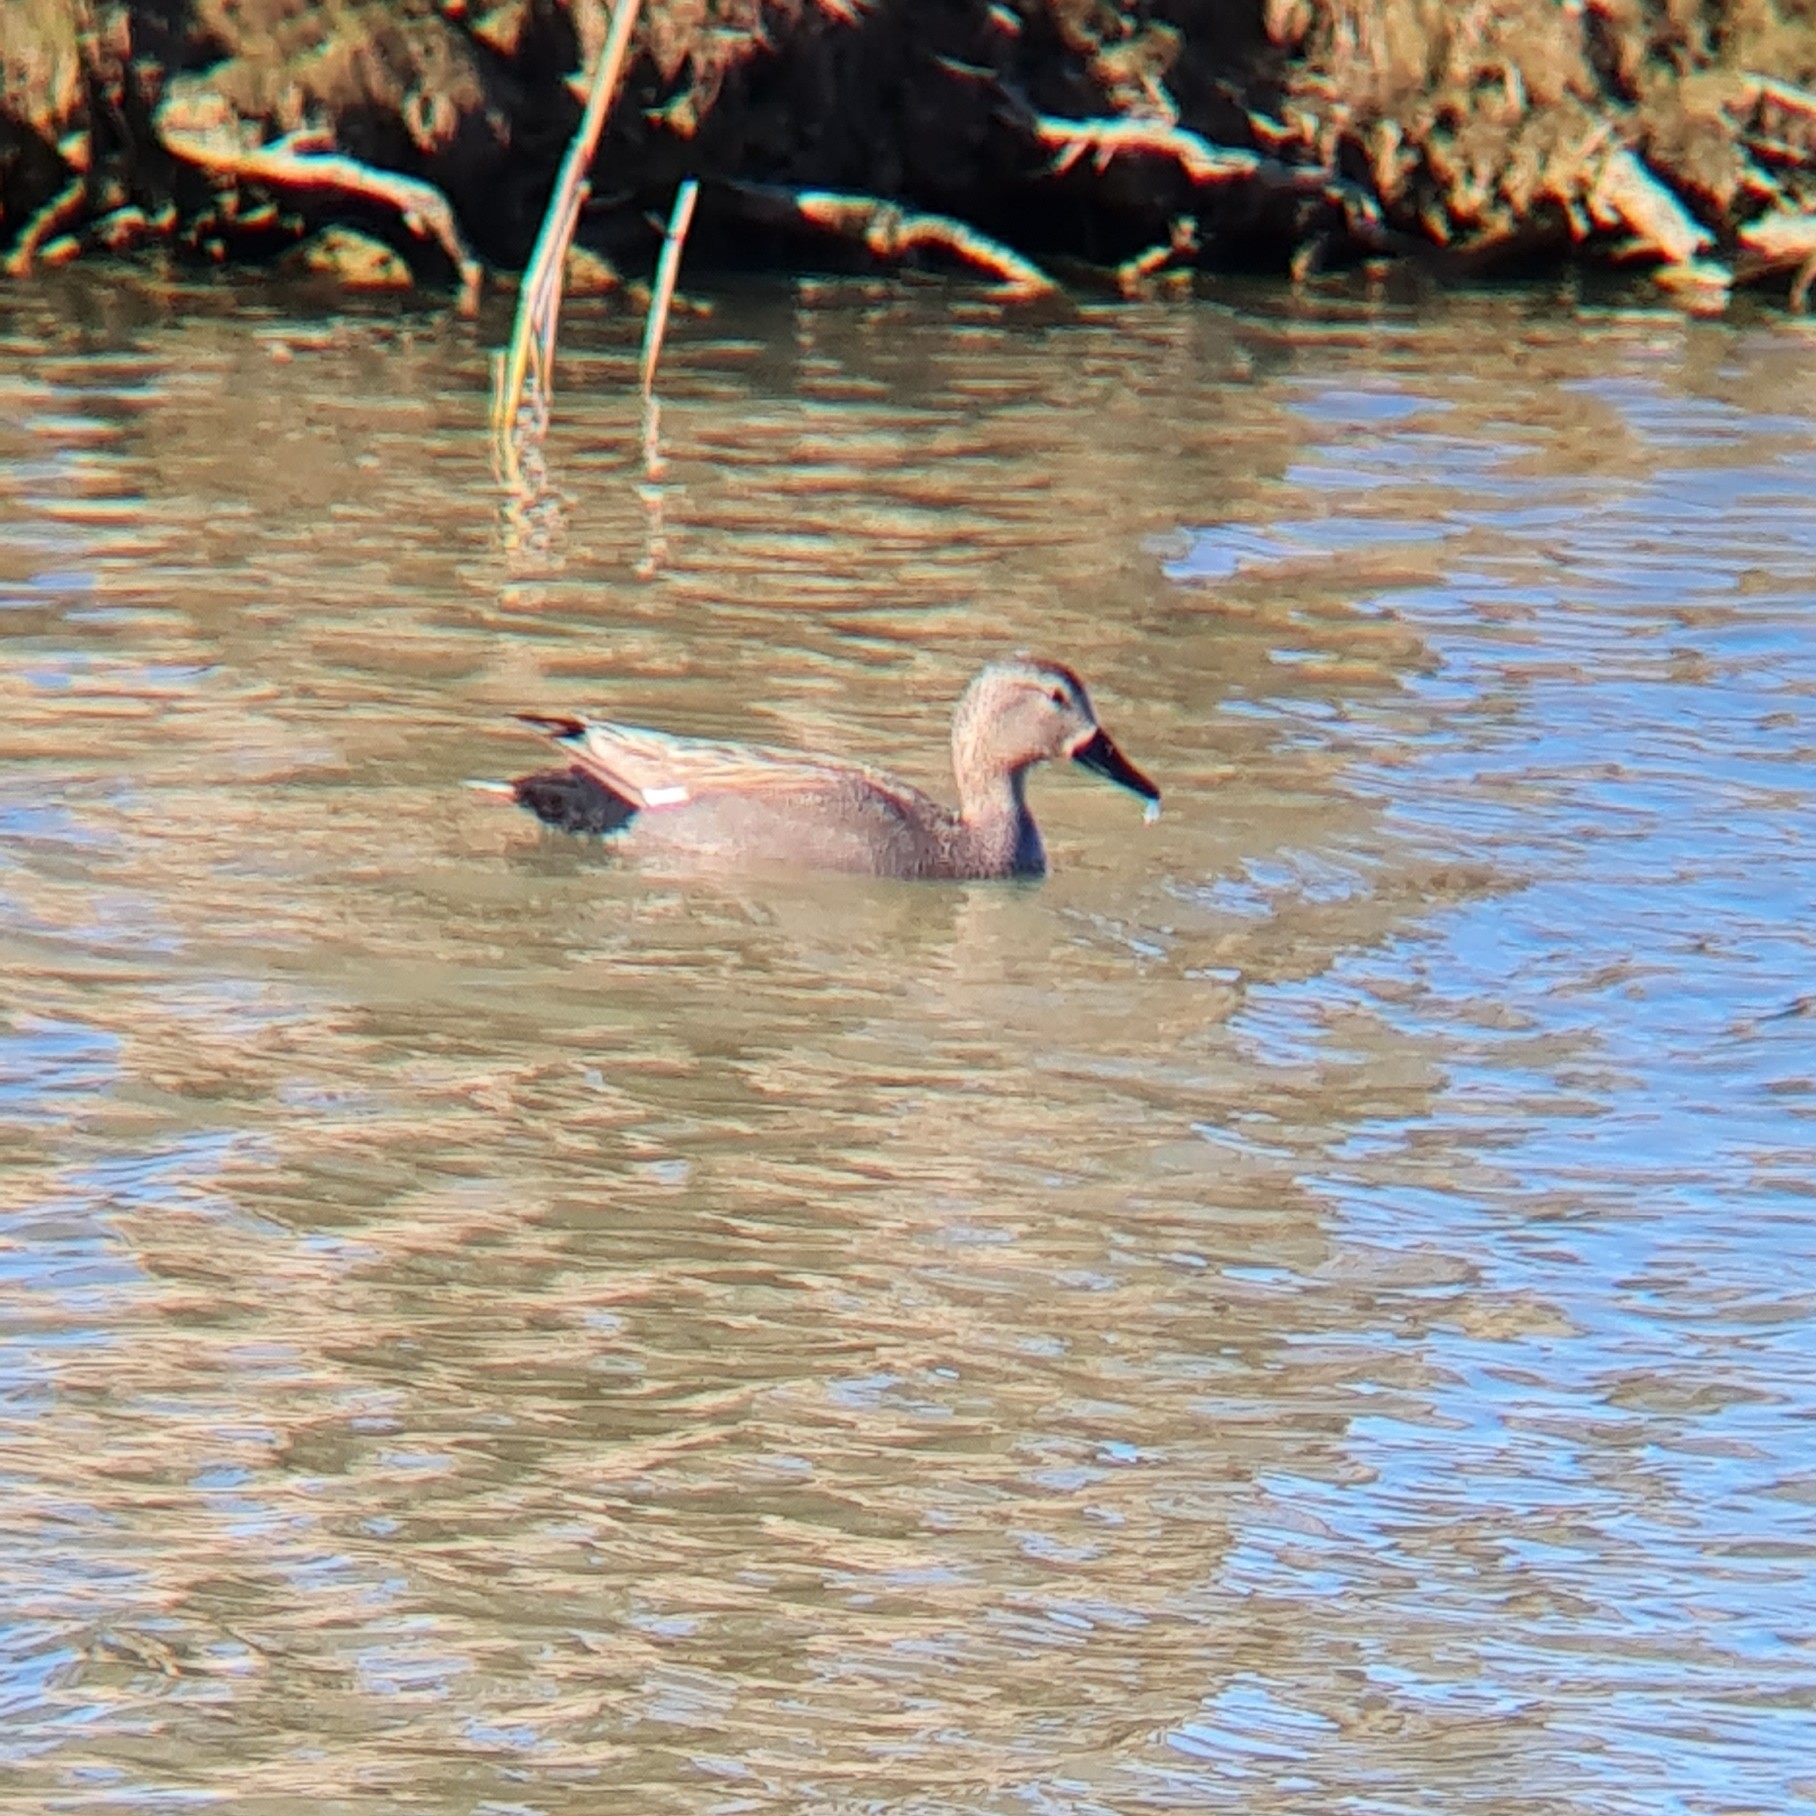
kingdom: Animalia
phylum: Chordata
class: Aves
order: Anseriformes
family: Anatidae
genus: Mareca
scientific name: Mareca strepera
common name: Gadwall
